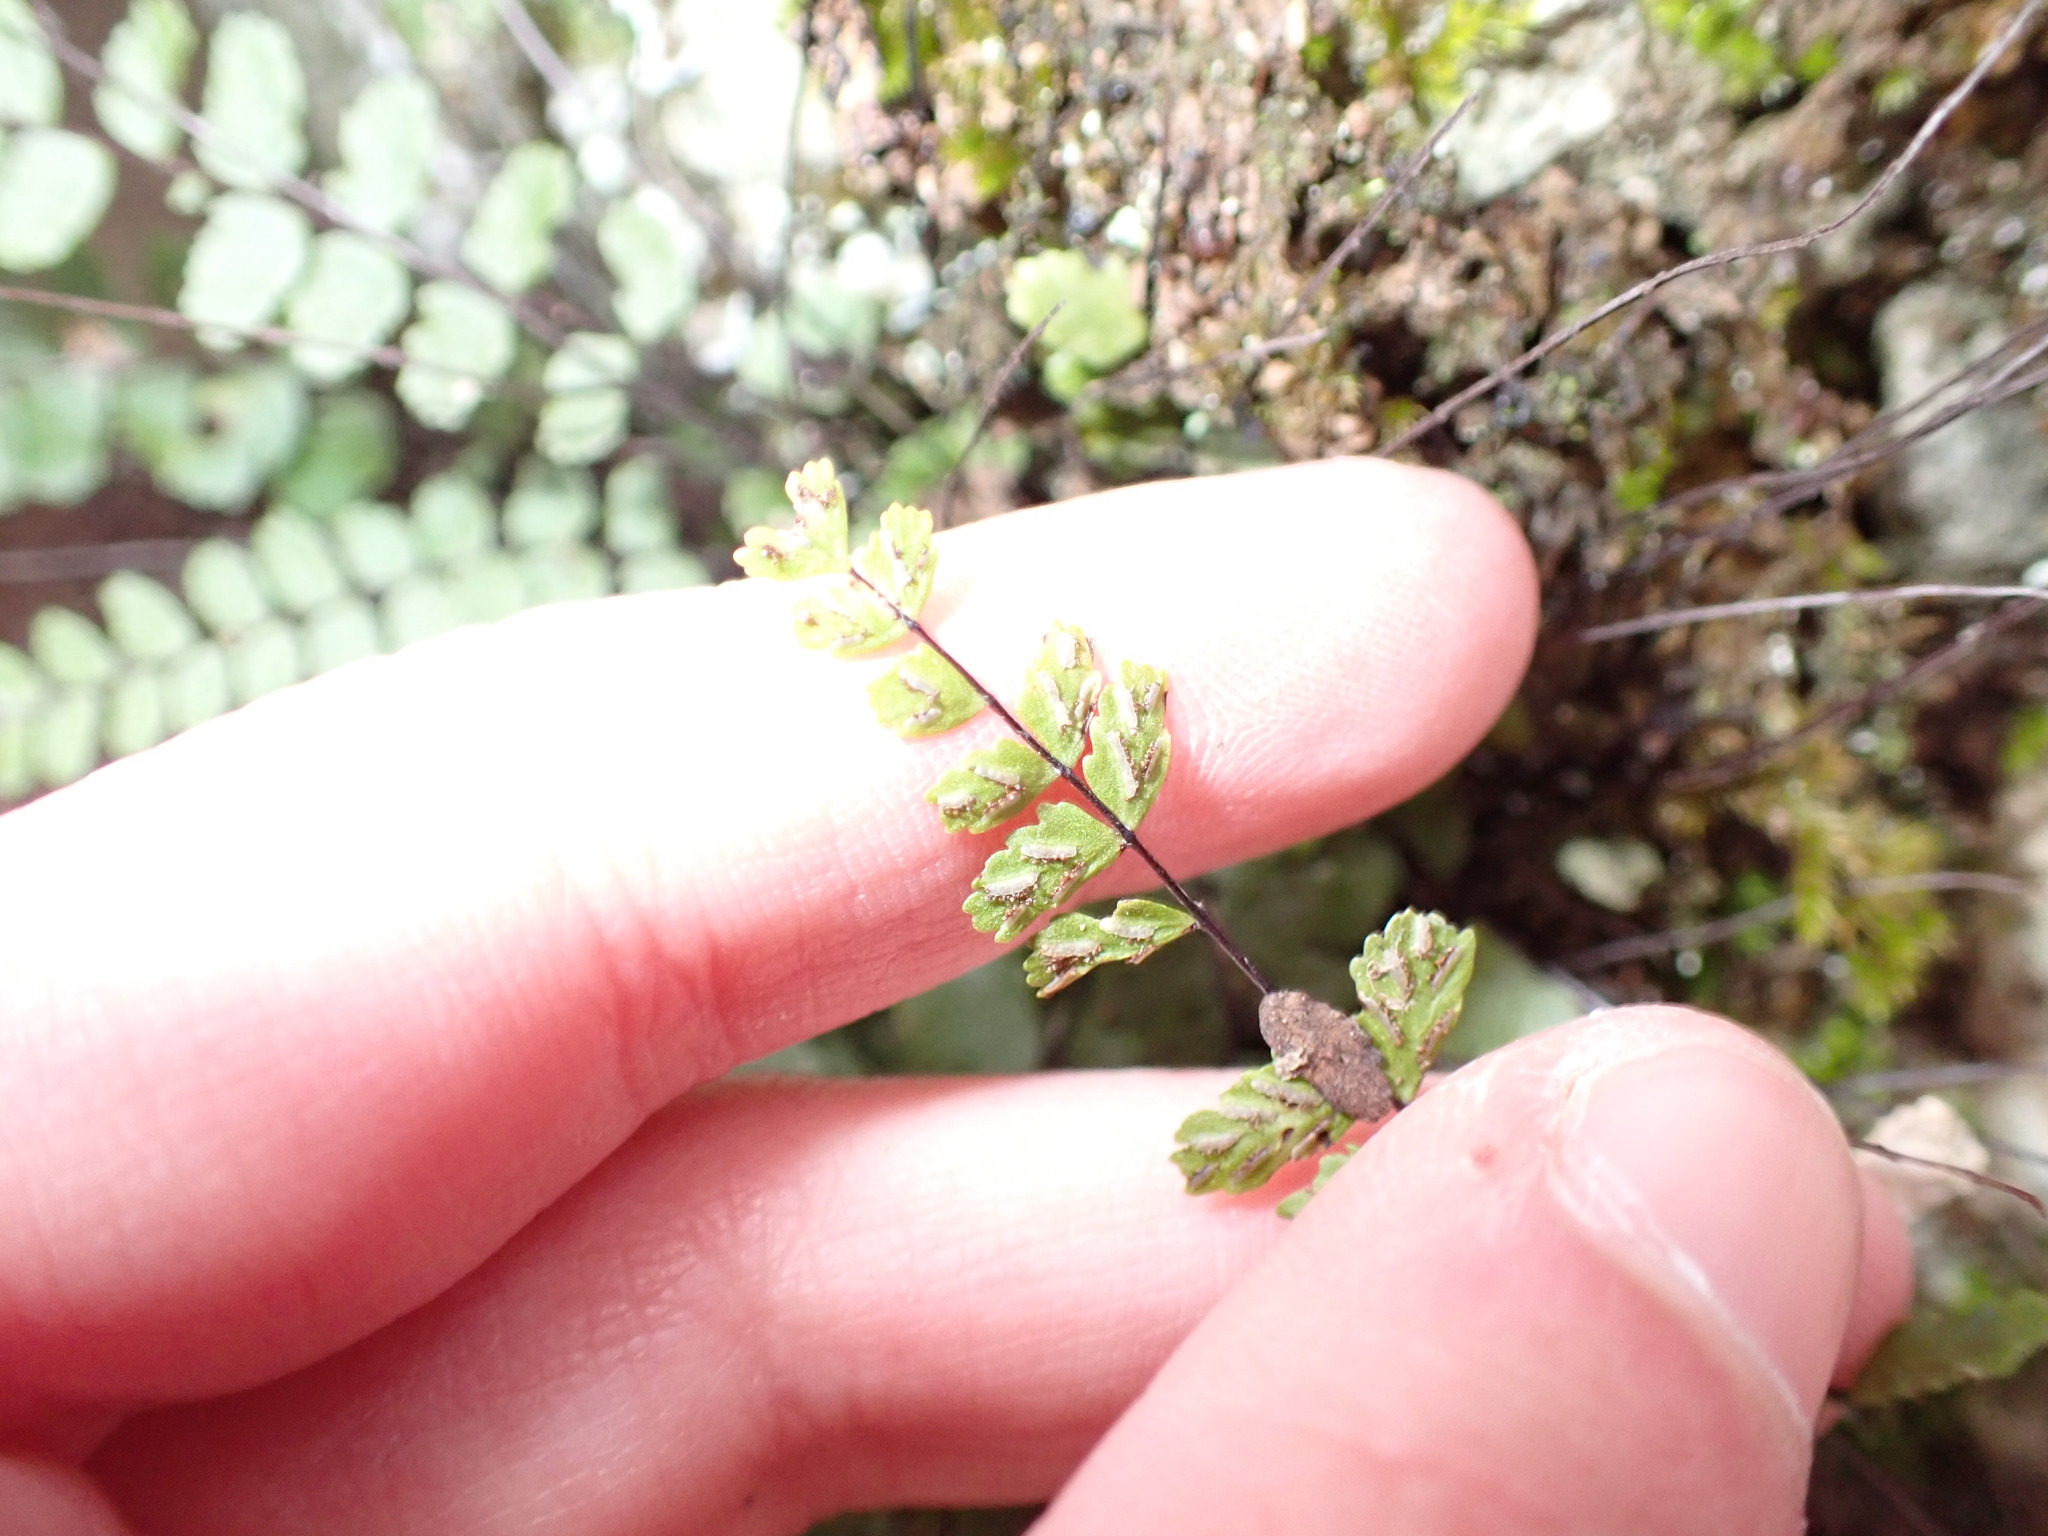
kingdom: Plantae
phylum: Tracheophyta
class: Polypodiopsida
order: Polypodiales
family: Aspleniaceae
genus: Asplenium
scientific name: Asplenium trichomanes
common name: Maidenhair spleenwort
